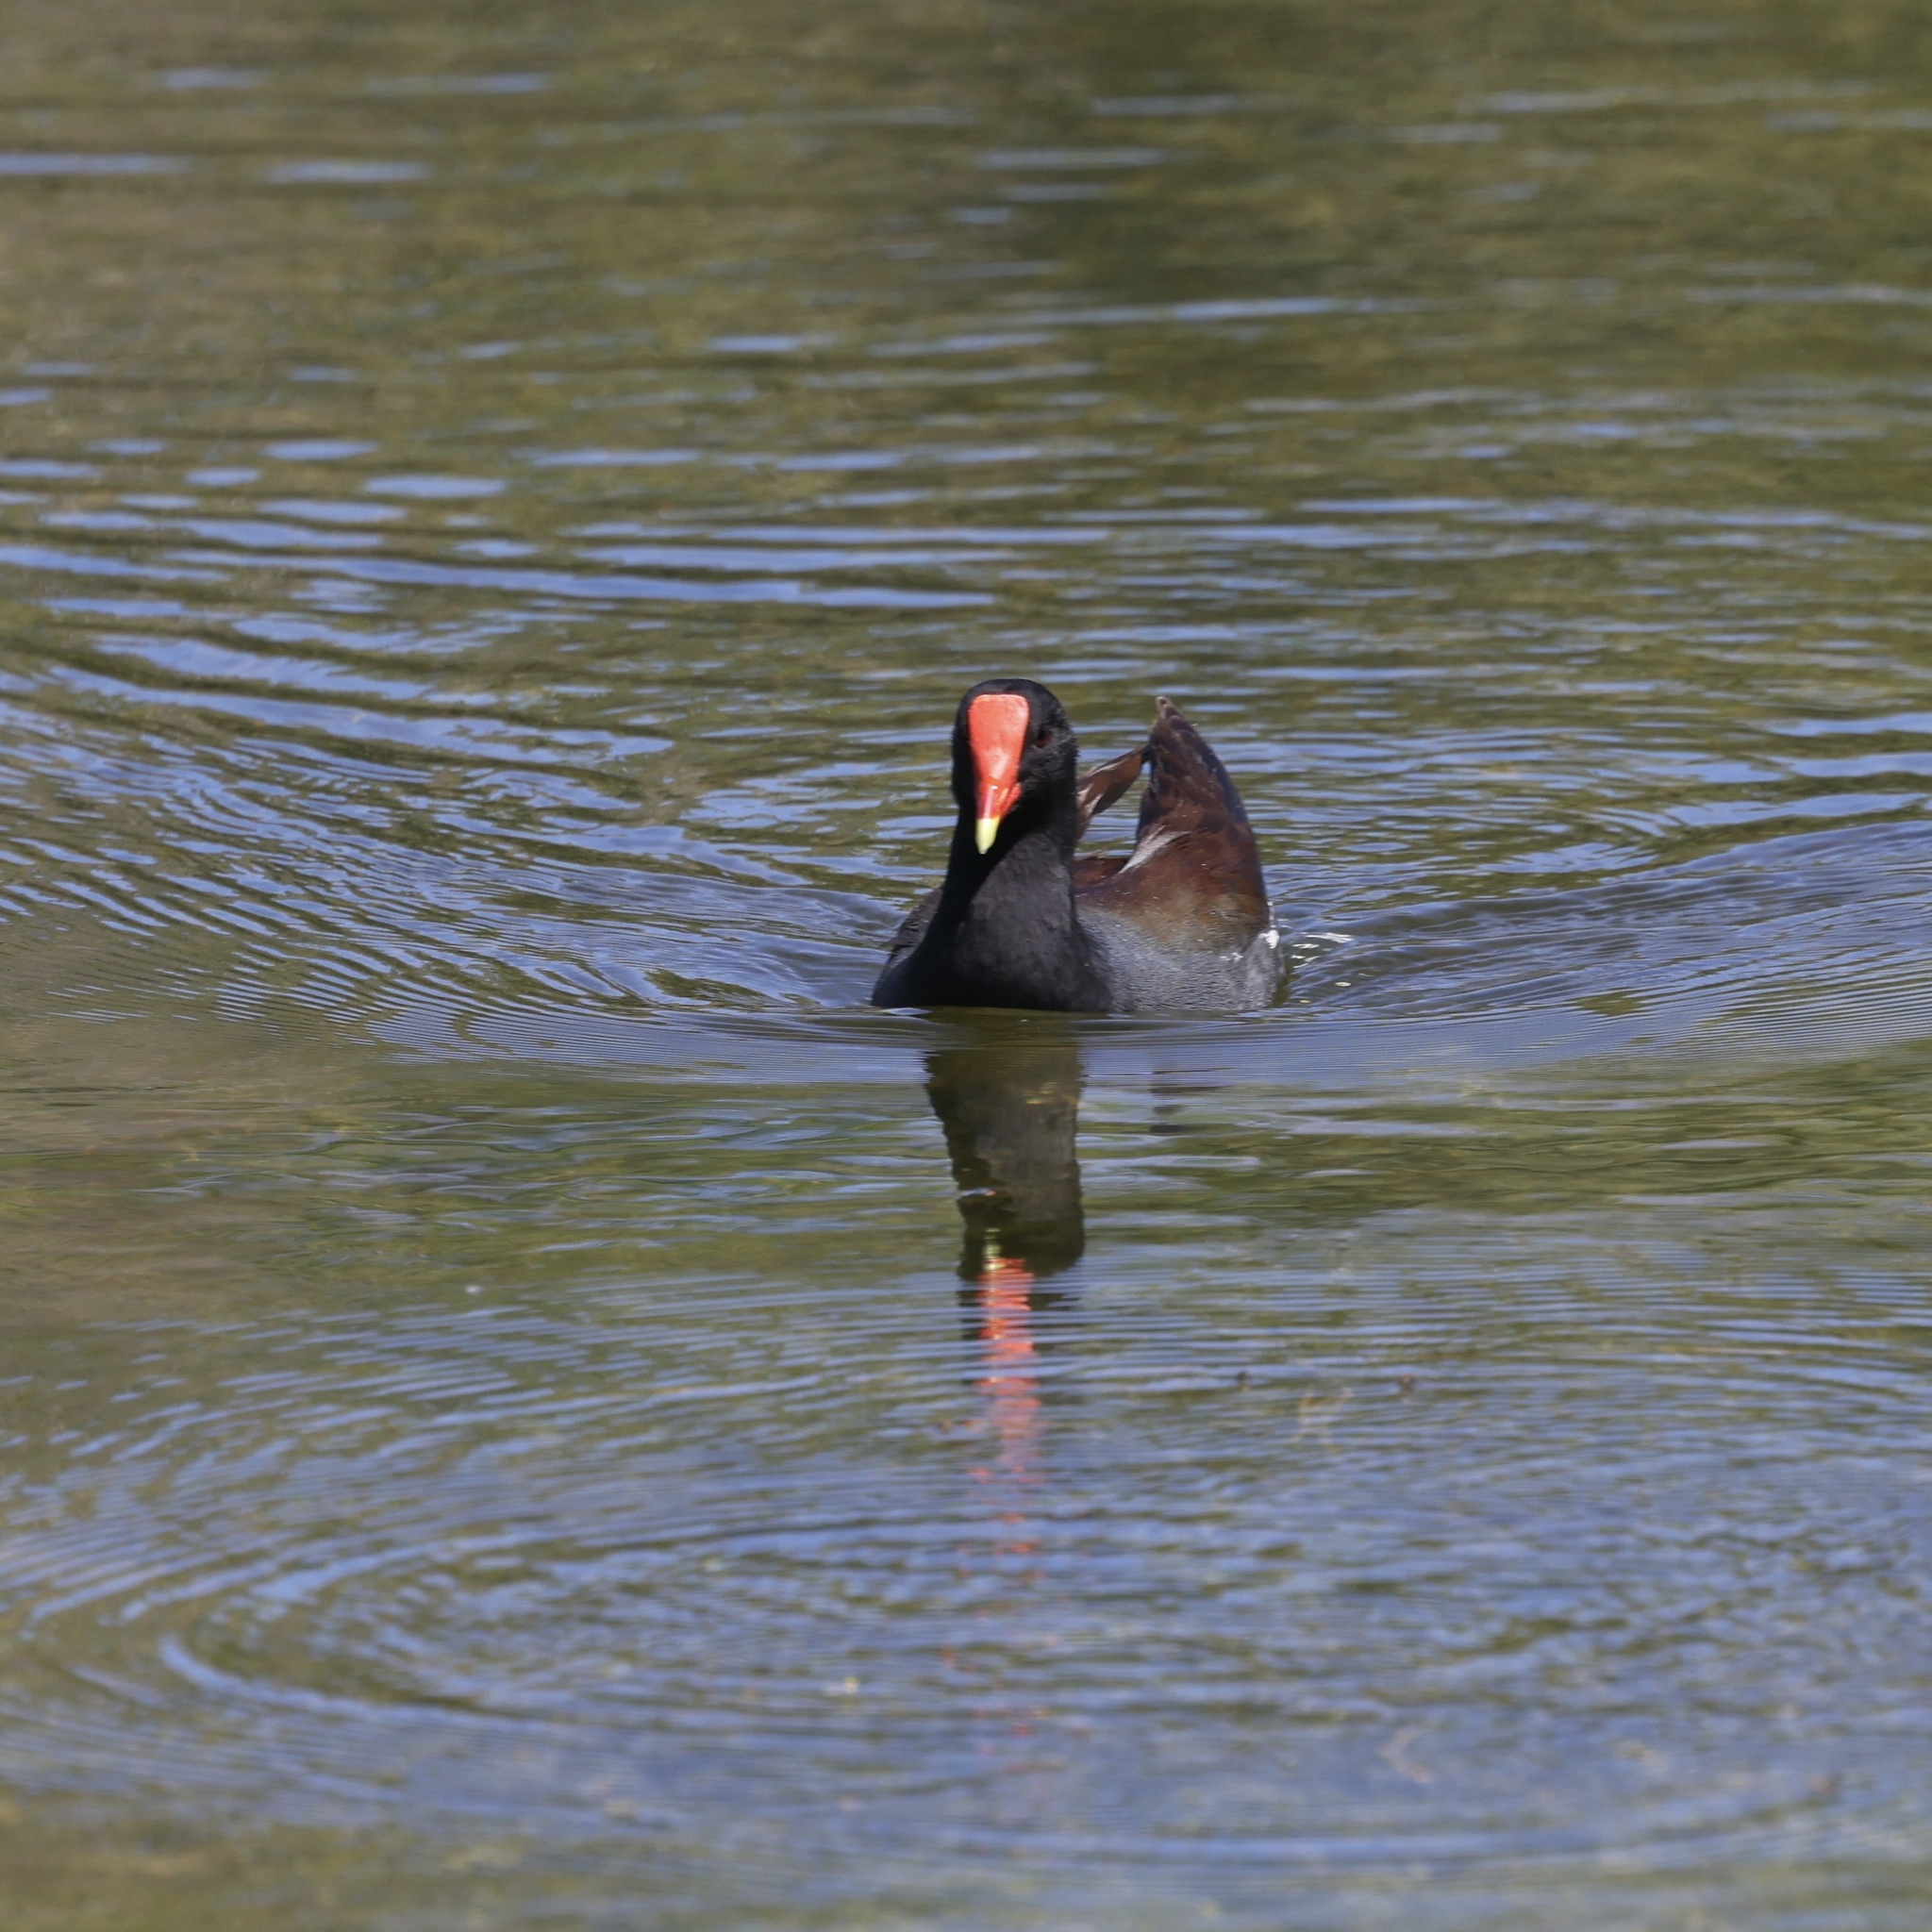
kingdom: Animalia
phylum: Chordata
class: Aves
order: Gruiformes
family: Rallidae
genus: Gallinula
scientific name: Gallinula chloropus
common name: Common moorhen
